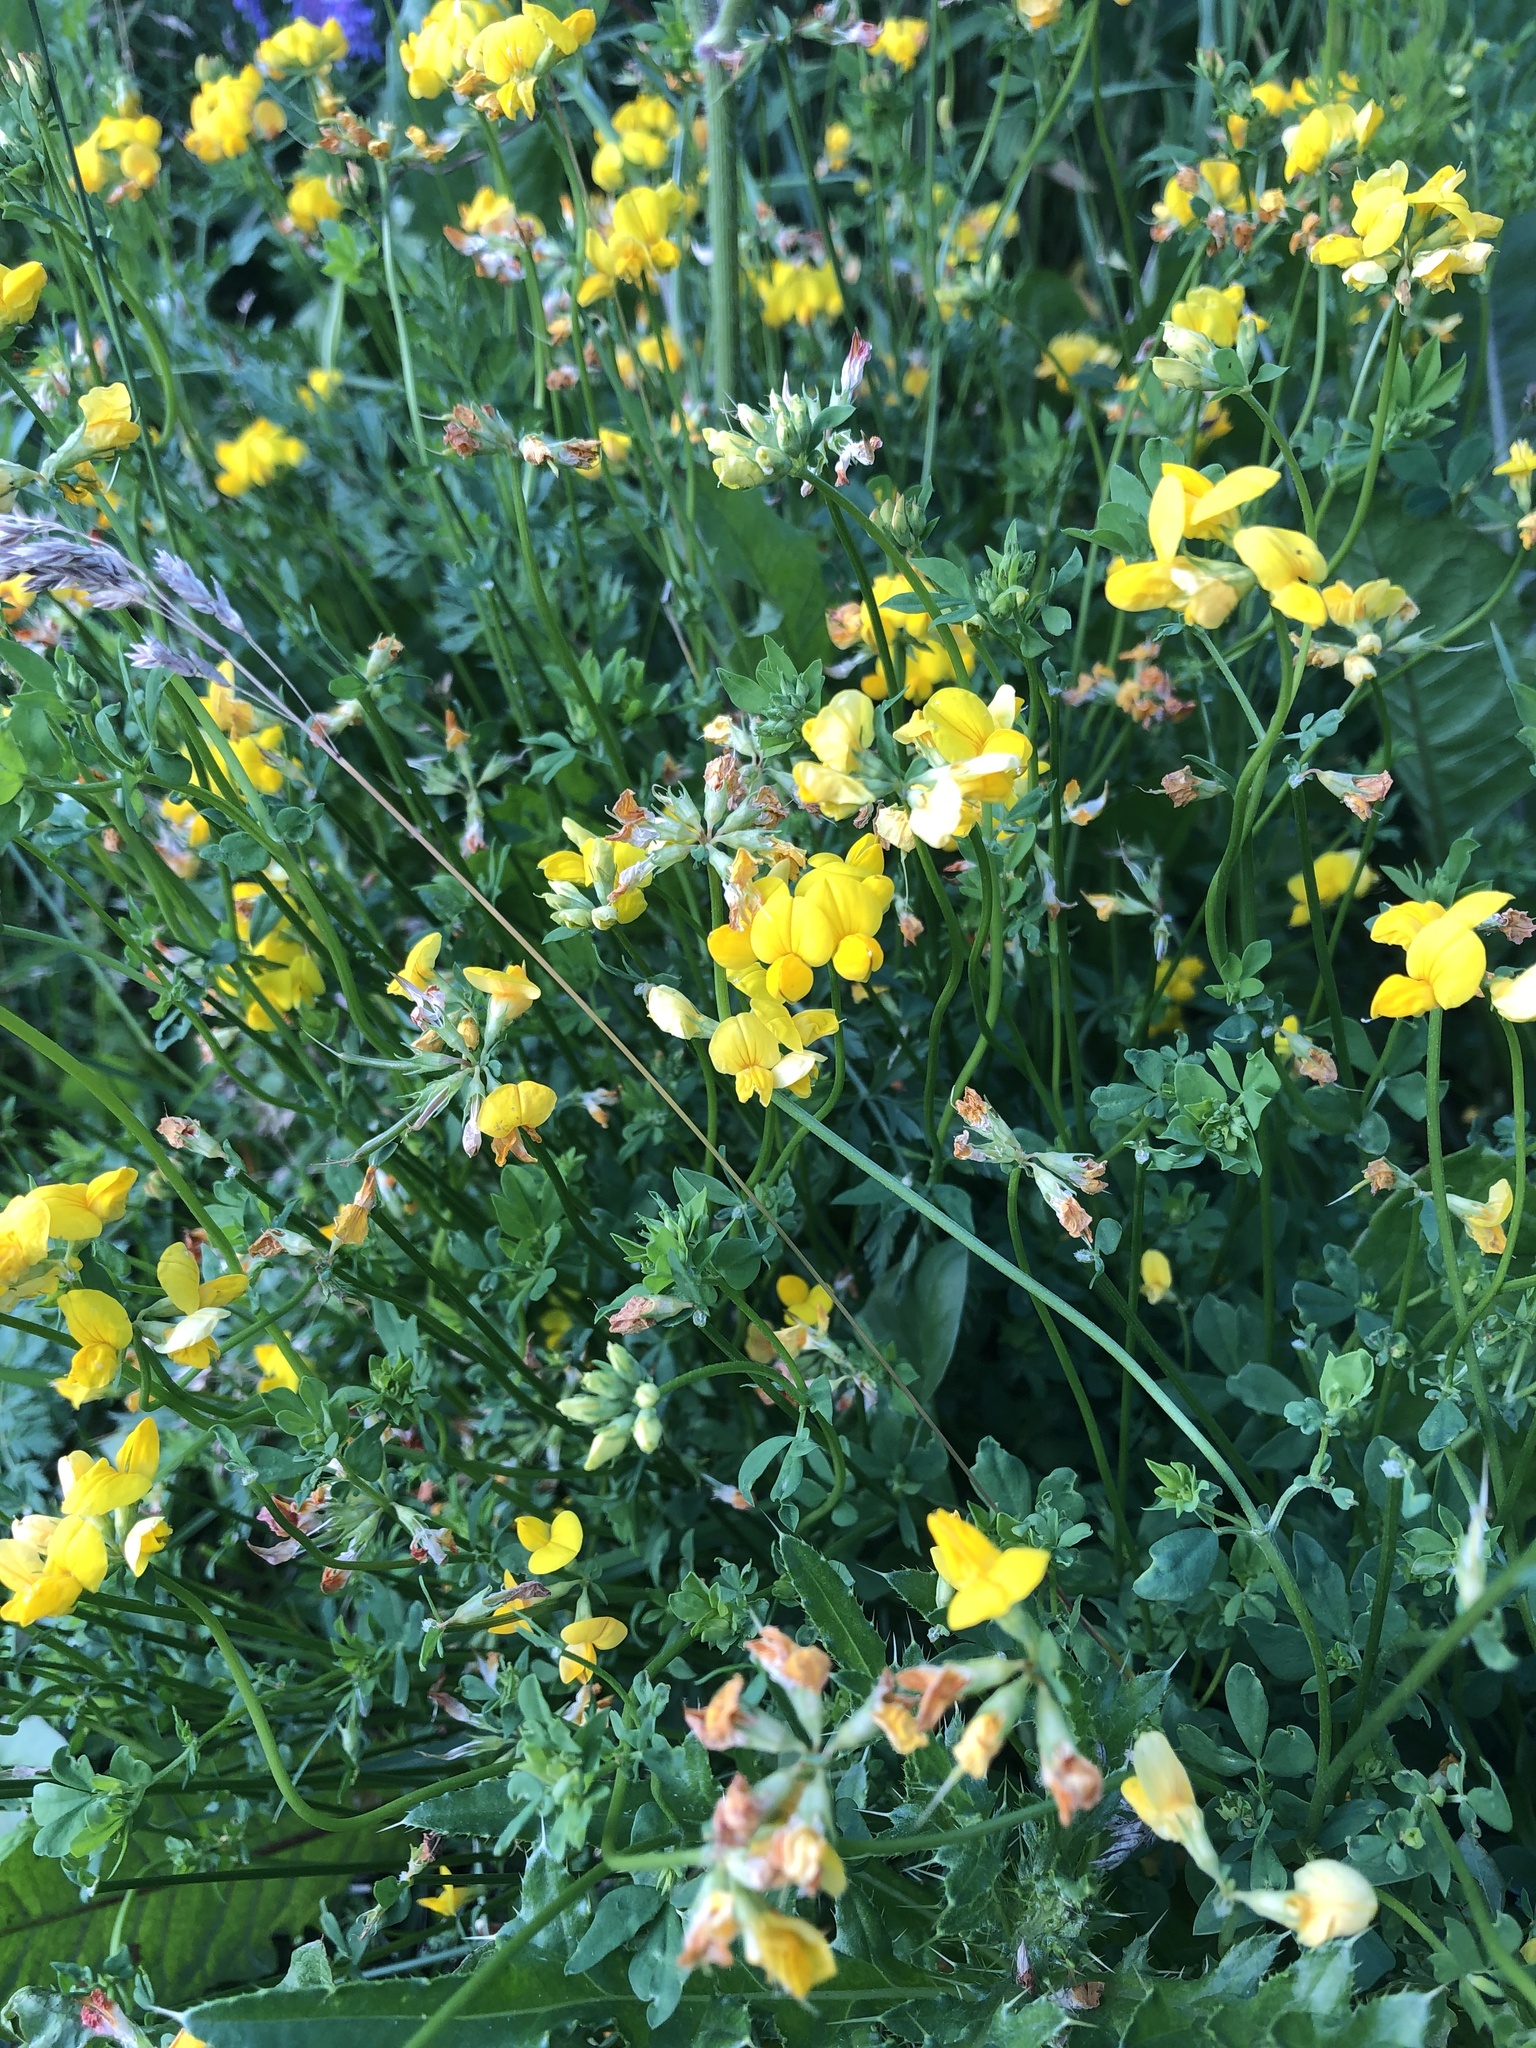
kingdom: Plantae
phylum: Tracheophyta
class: Magnoliopsida
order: Fabales
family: Fabaceae
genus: Lotus
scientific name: Lotus corniculatus
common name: Common bird's-foot-trefoil
